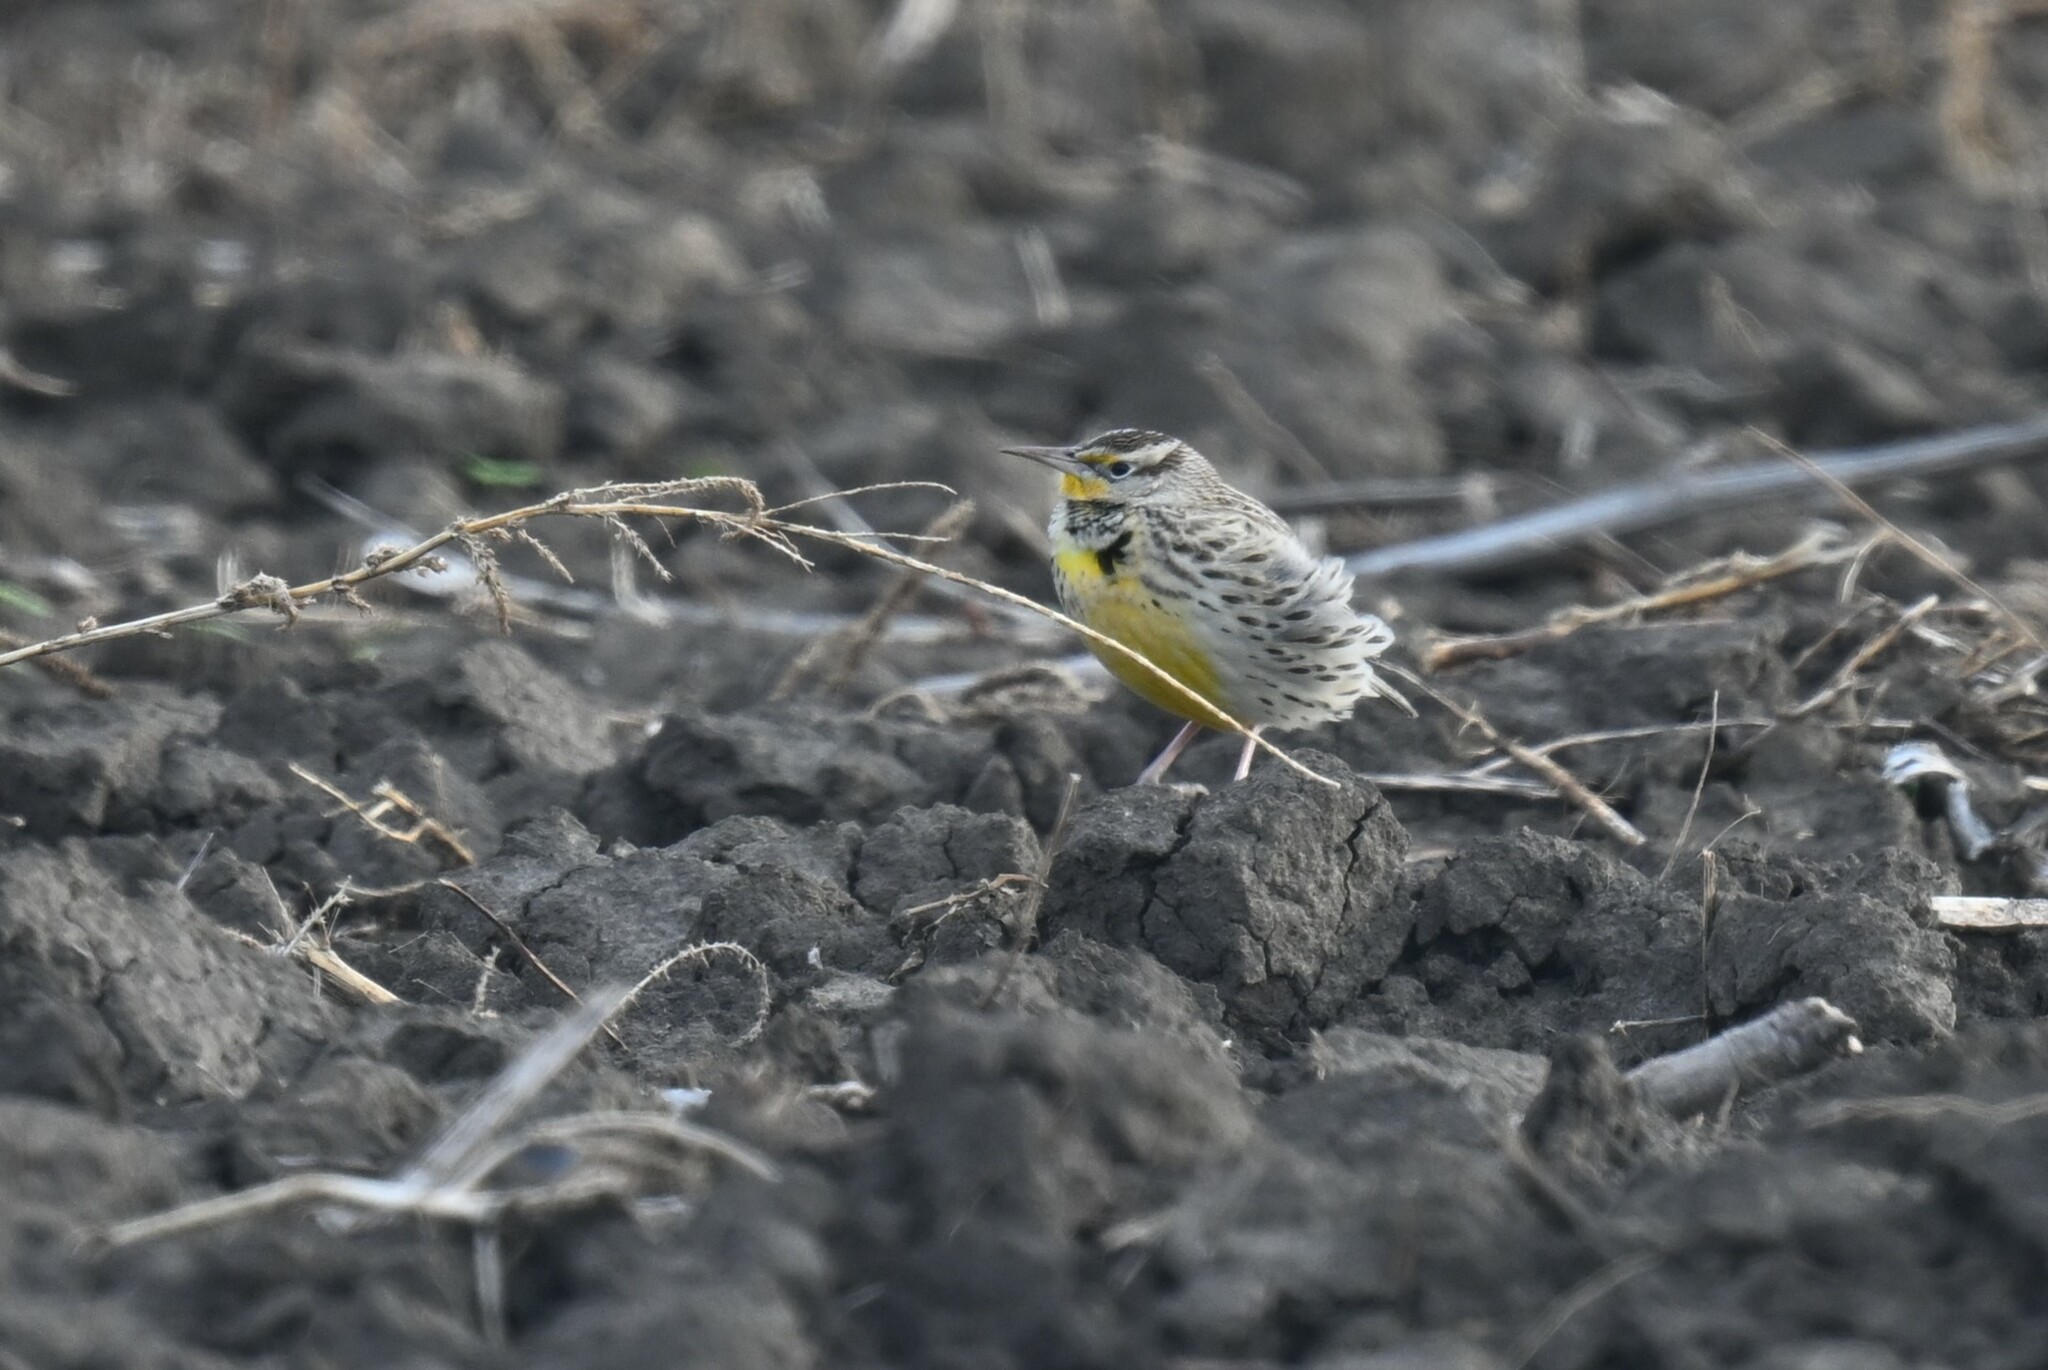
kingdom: Animalia
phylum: Chordata
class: Aves
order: Passeriformes
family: Icteridae
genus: Sturnella
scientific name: Sturnella neglecta
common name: Western meadowlark
